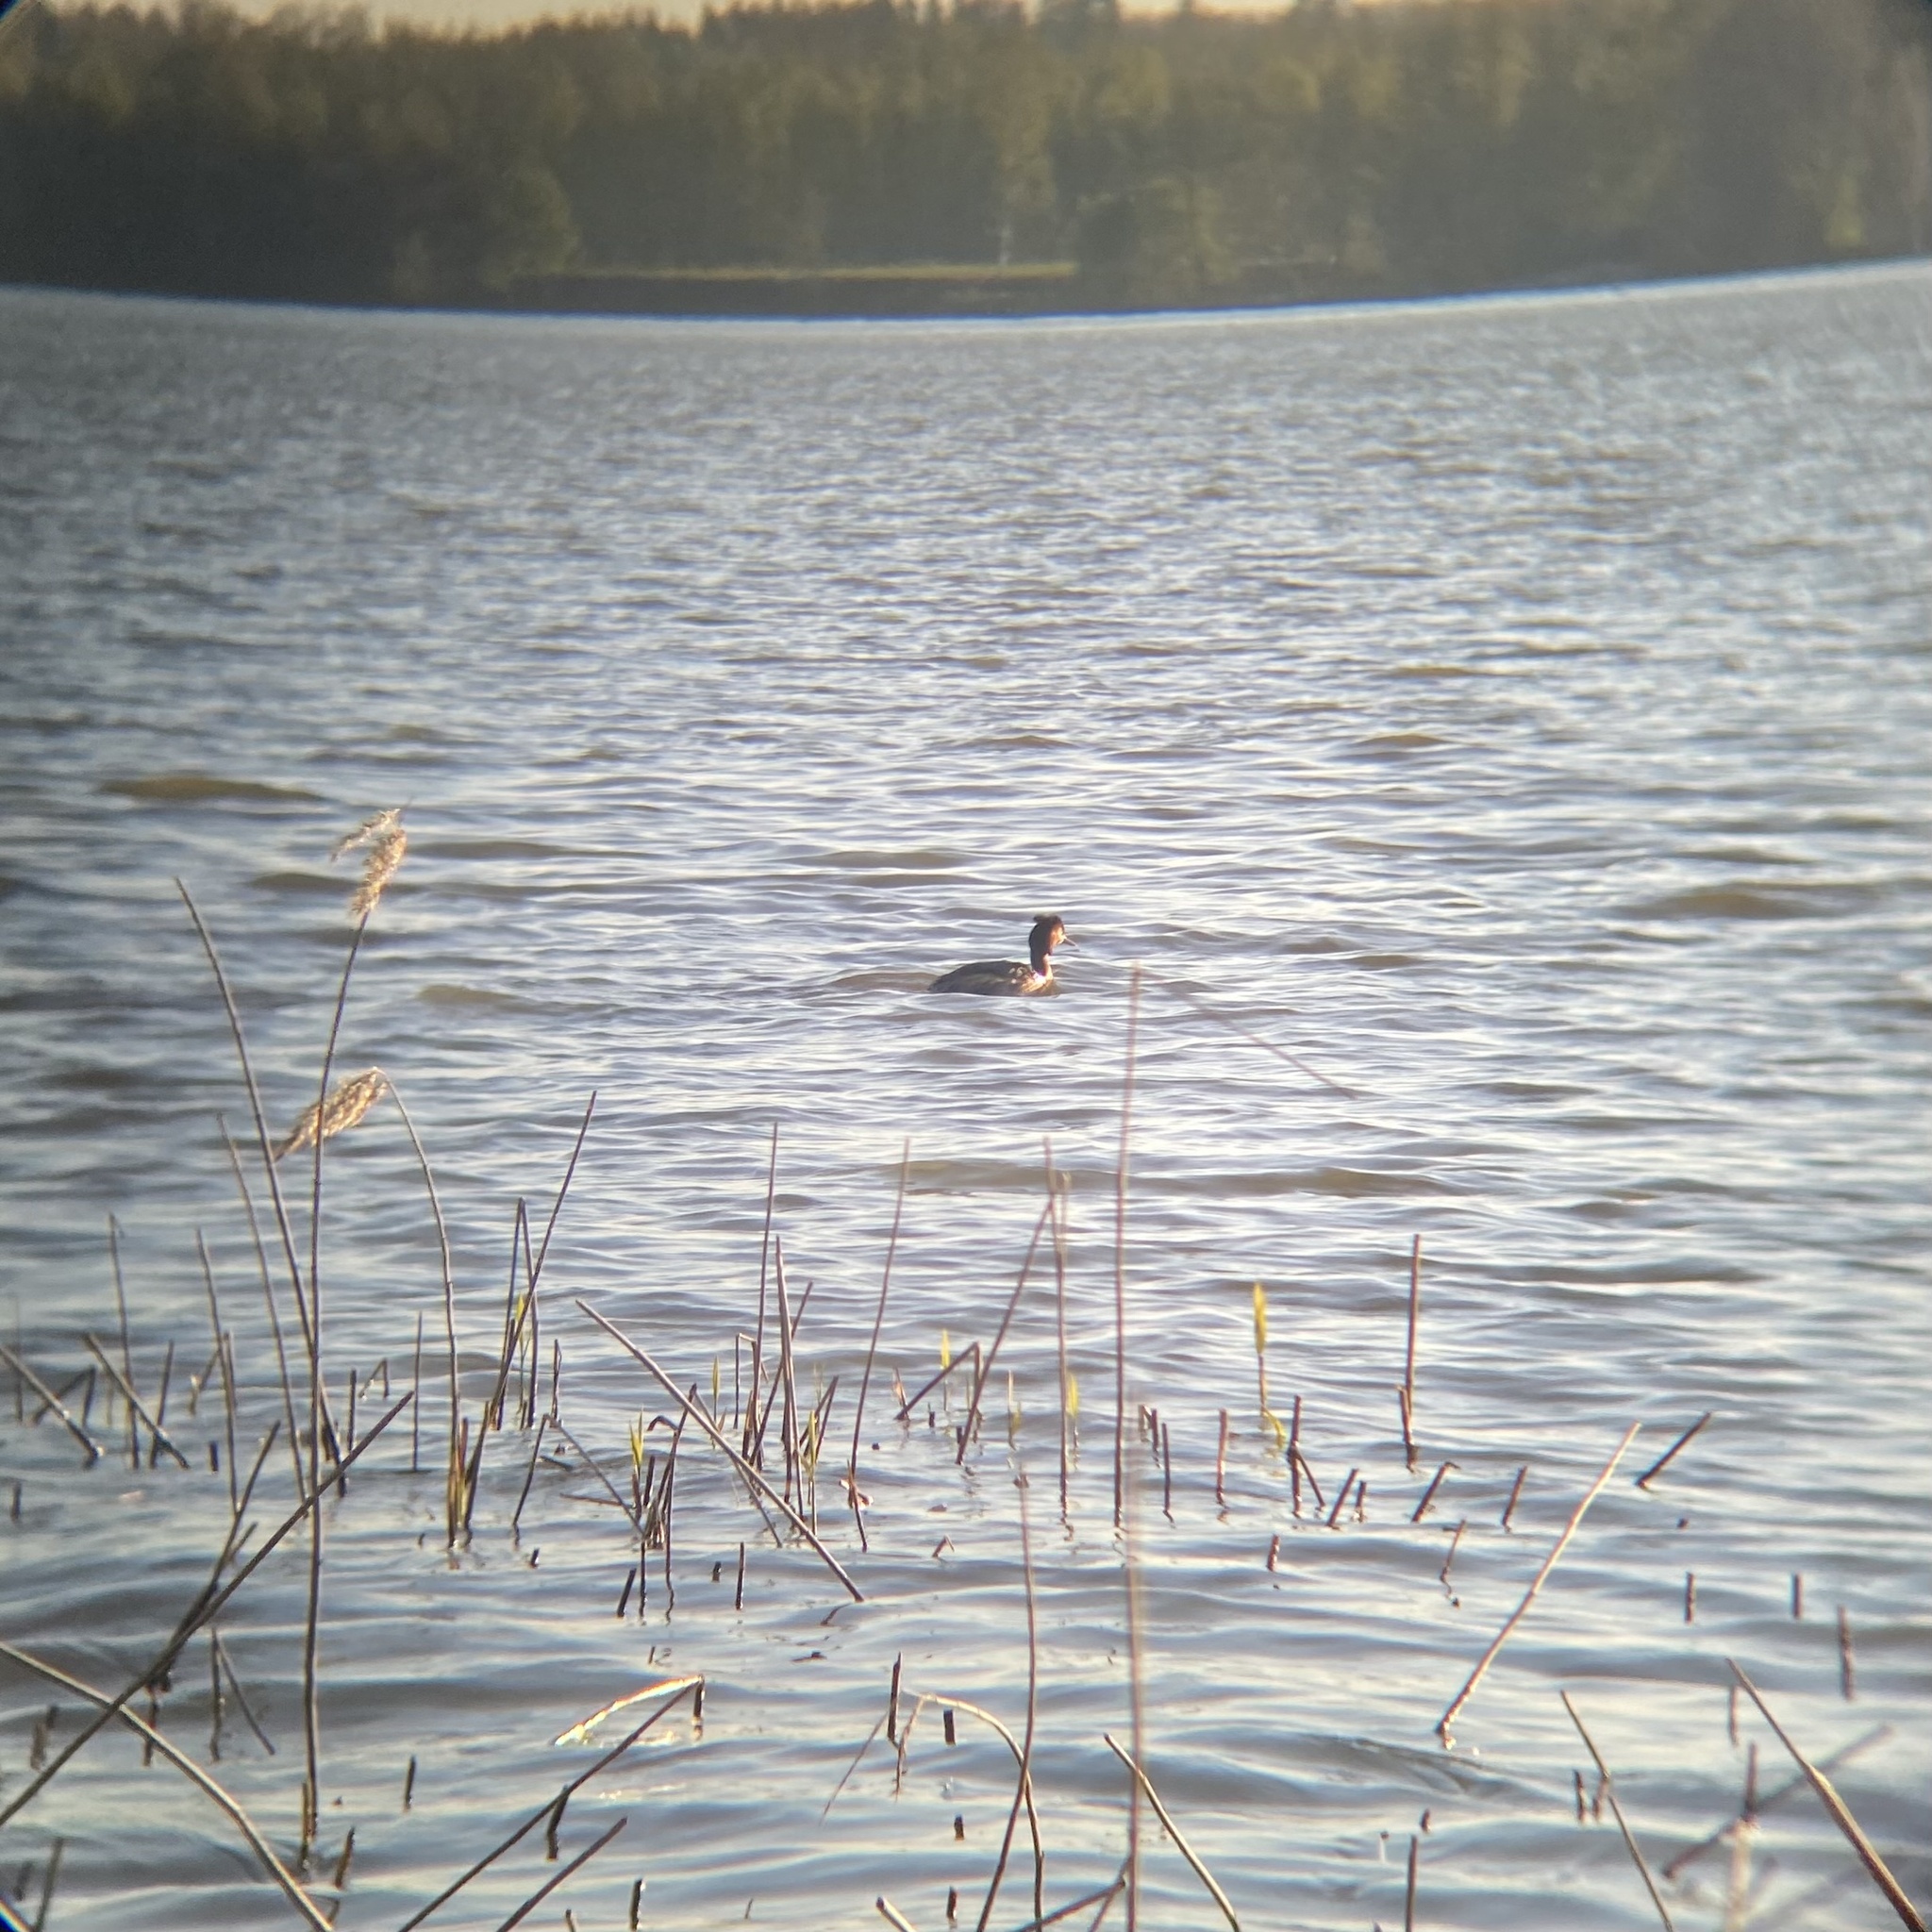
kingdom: Animalia
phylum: Chordata
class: Aves
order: Podicipediformes
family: Podicipedidae
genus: Podiceps
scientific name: Podiceps cristatus
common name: Great crested grebe
